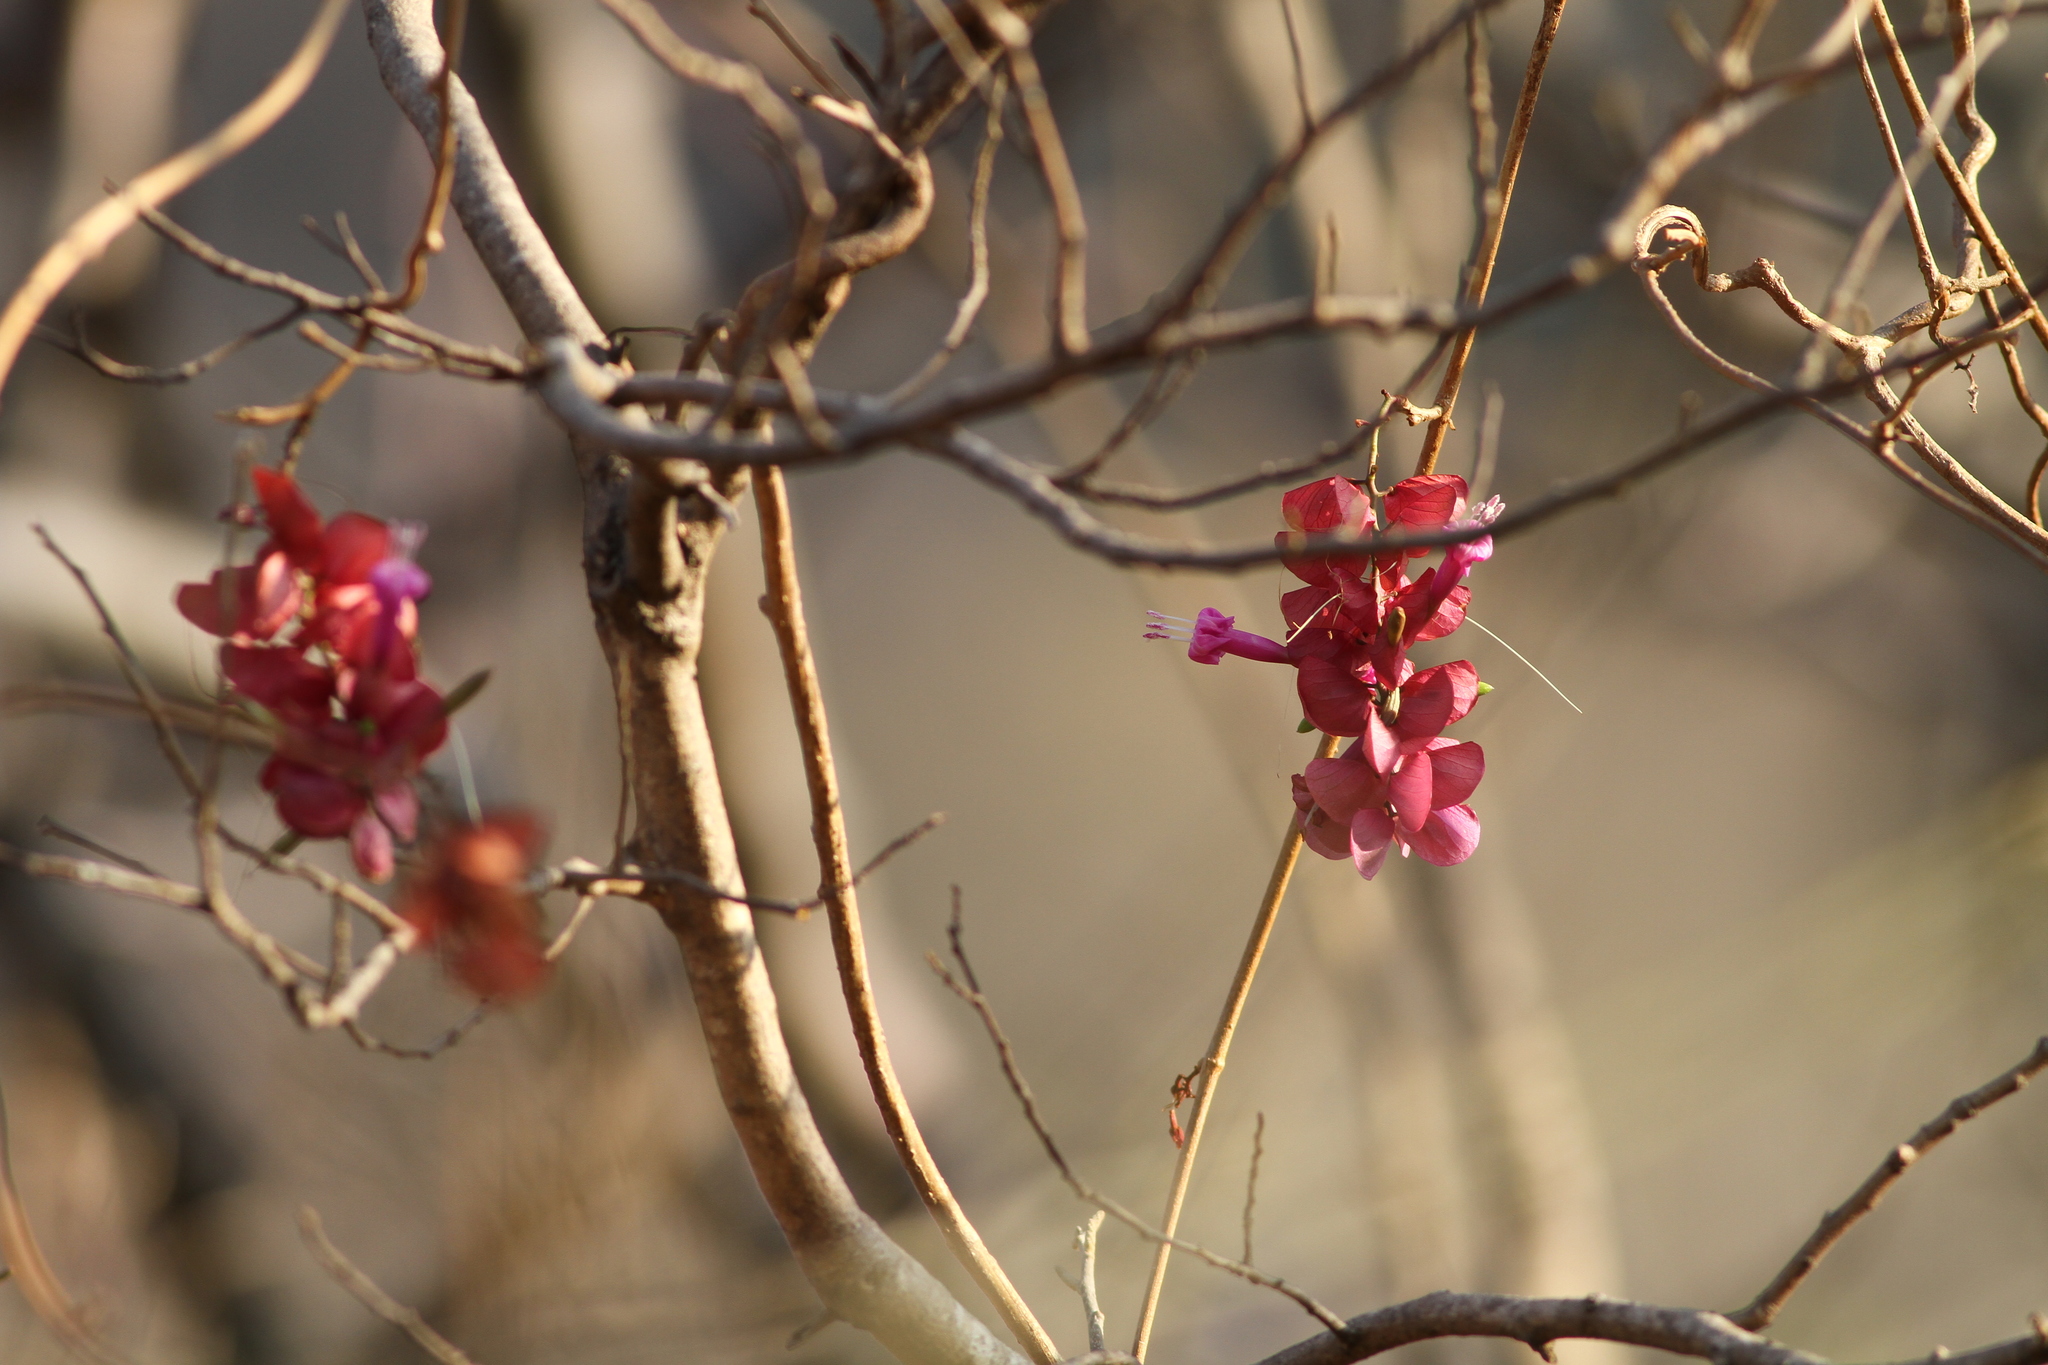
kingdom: Plantae
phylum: Tracheophyta
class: Magnoliopsida
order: Solanales
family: Convolvulaceae
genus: Ipomoea
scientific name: Ipomoea bracteata
